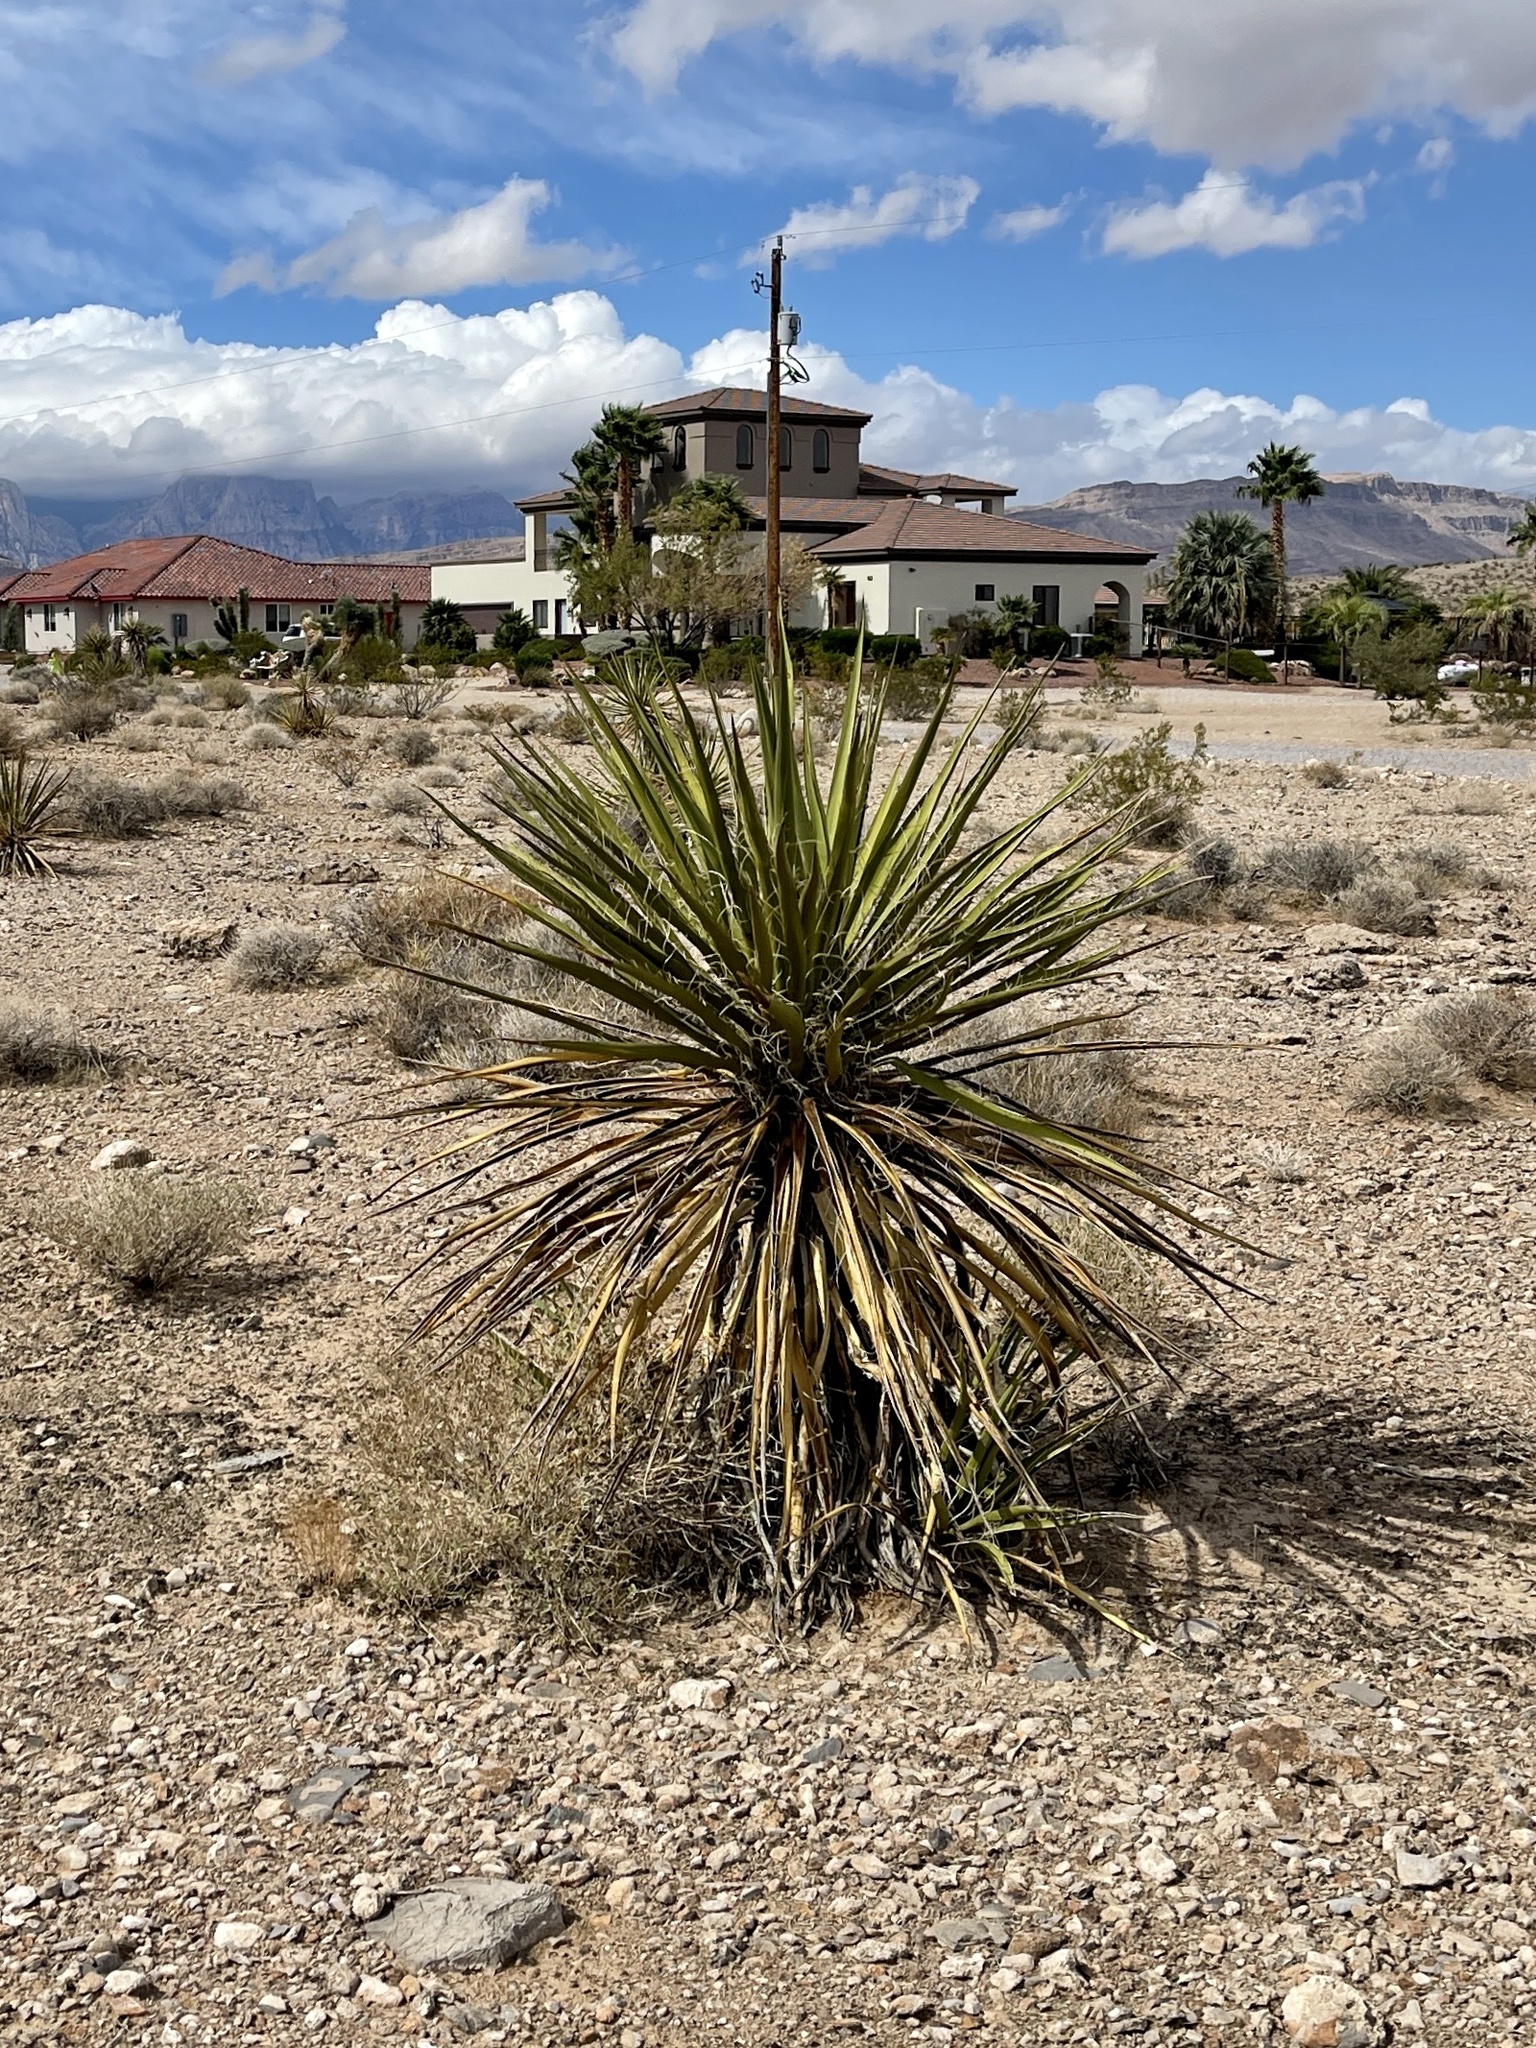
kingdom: Plantae
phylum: Tracheophyta
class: Liliopsida
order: Asparagales
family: Asparagaceae
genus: Yucca
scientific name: Yucca schidigera
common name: Mojave yucca
